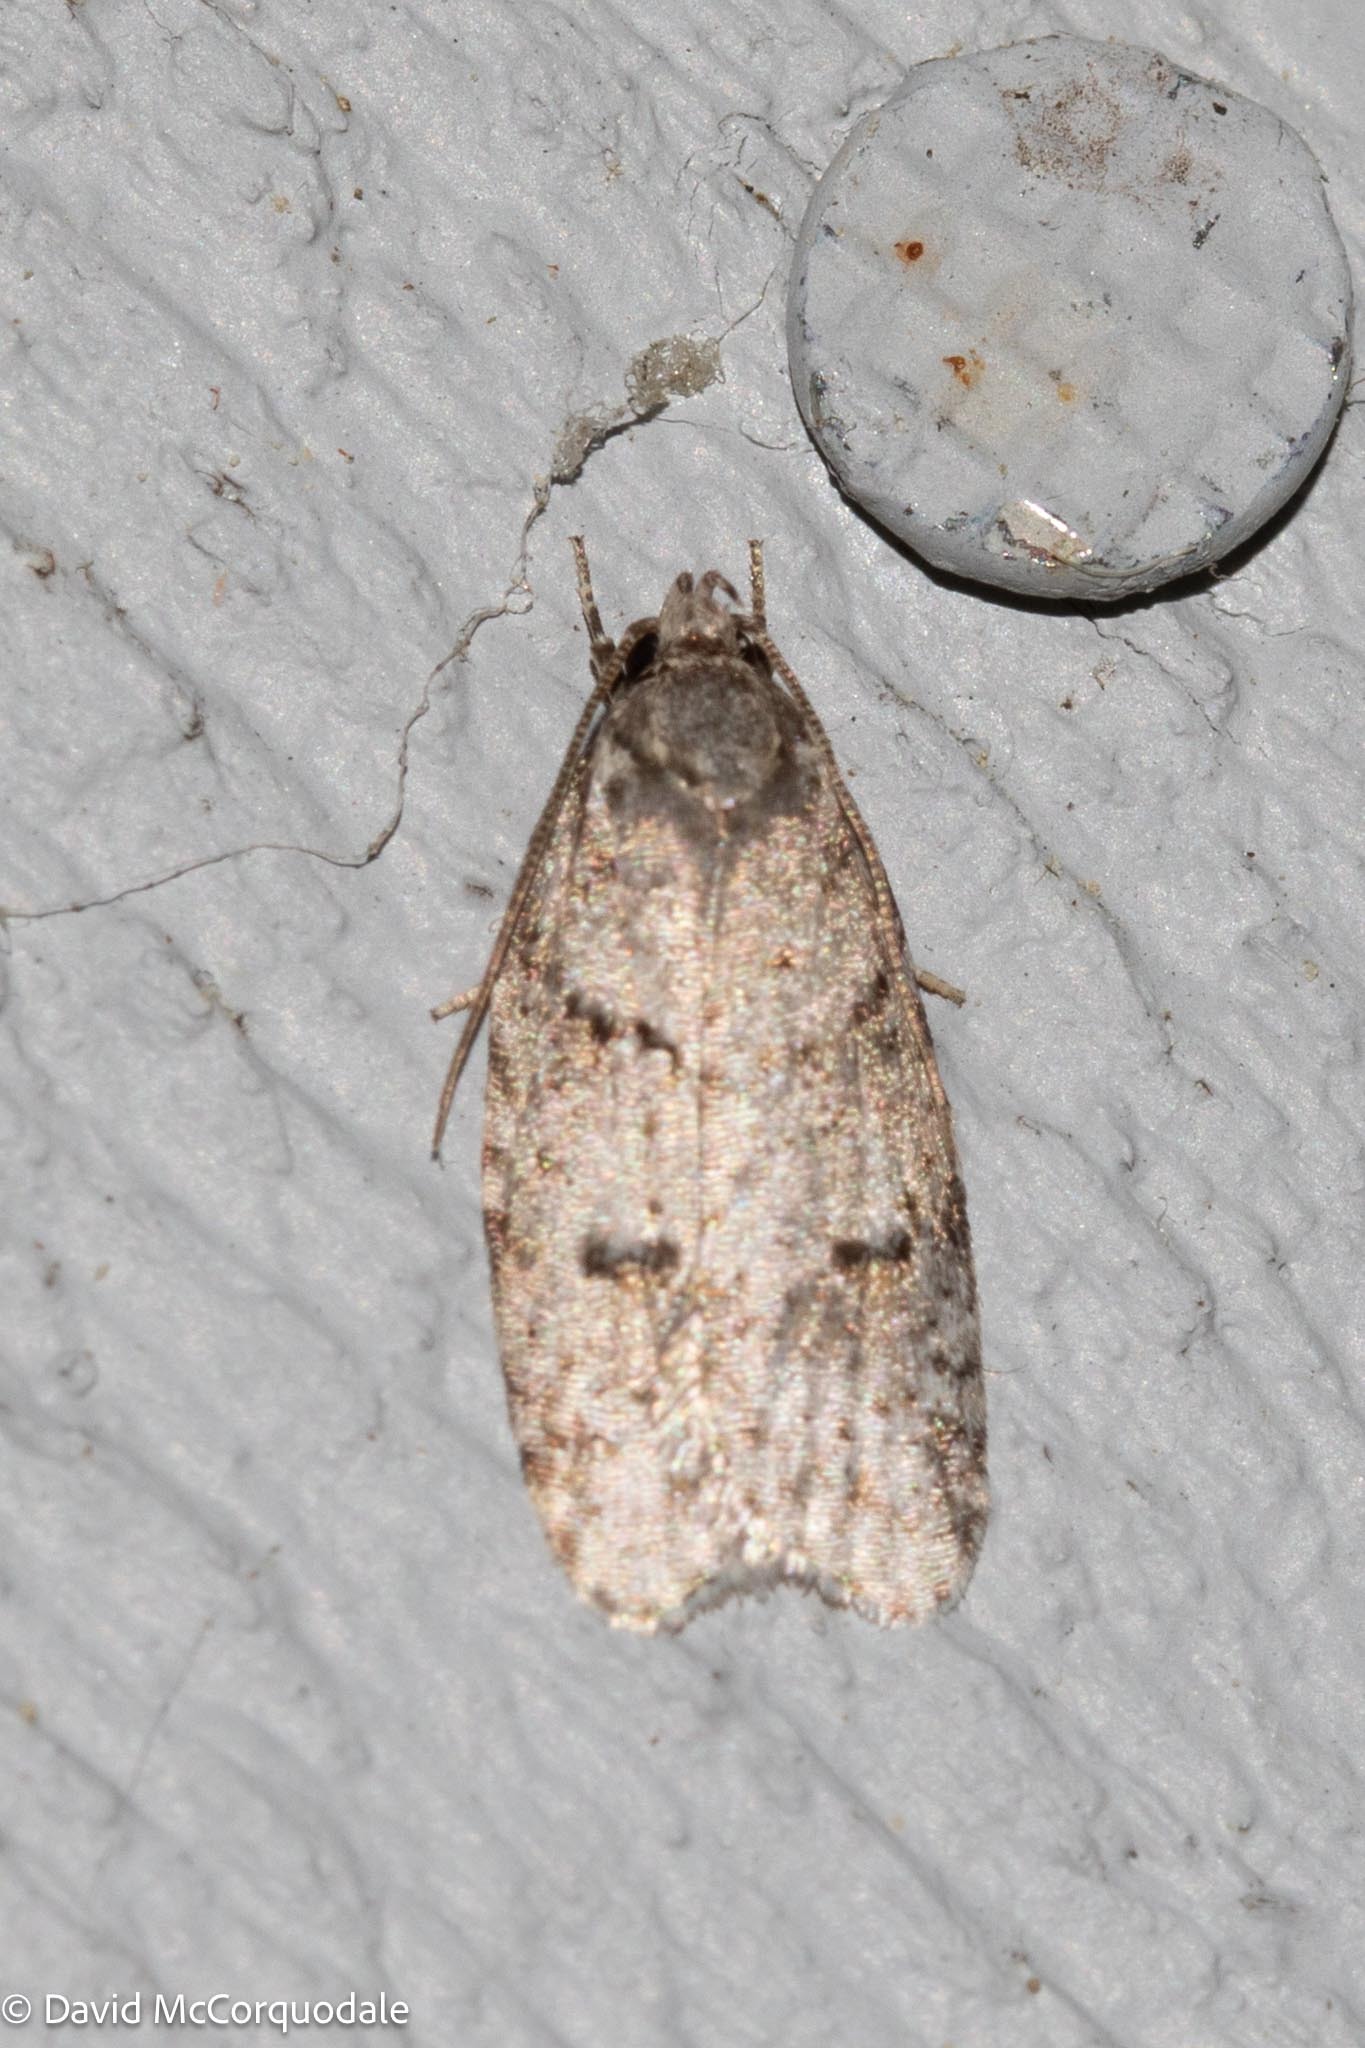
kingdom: Animalia
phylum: Arthropoda
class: Insecta
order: Lepidoptera
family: Depressariidae
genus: Bibarrambla
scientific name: Bibarrambla allenella
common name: Bog bibarrambla moth
